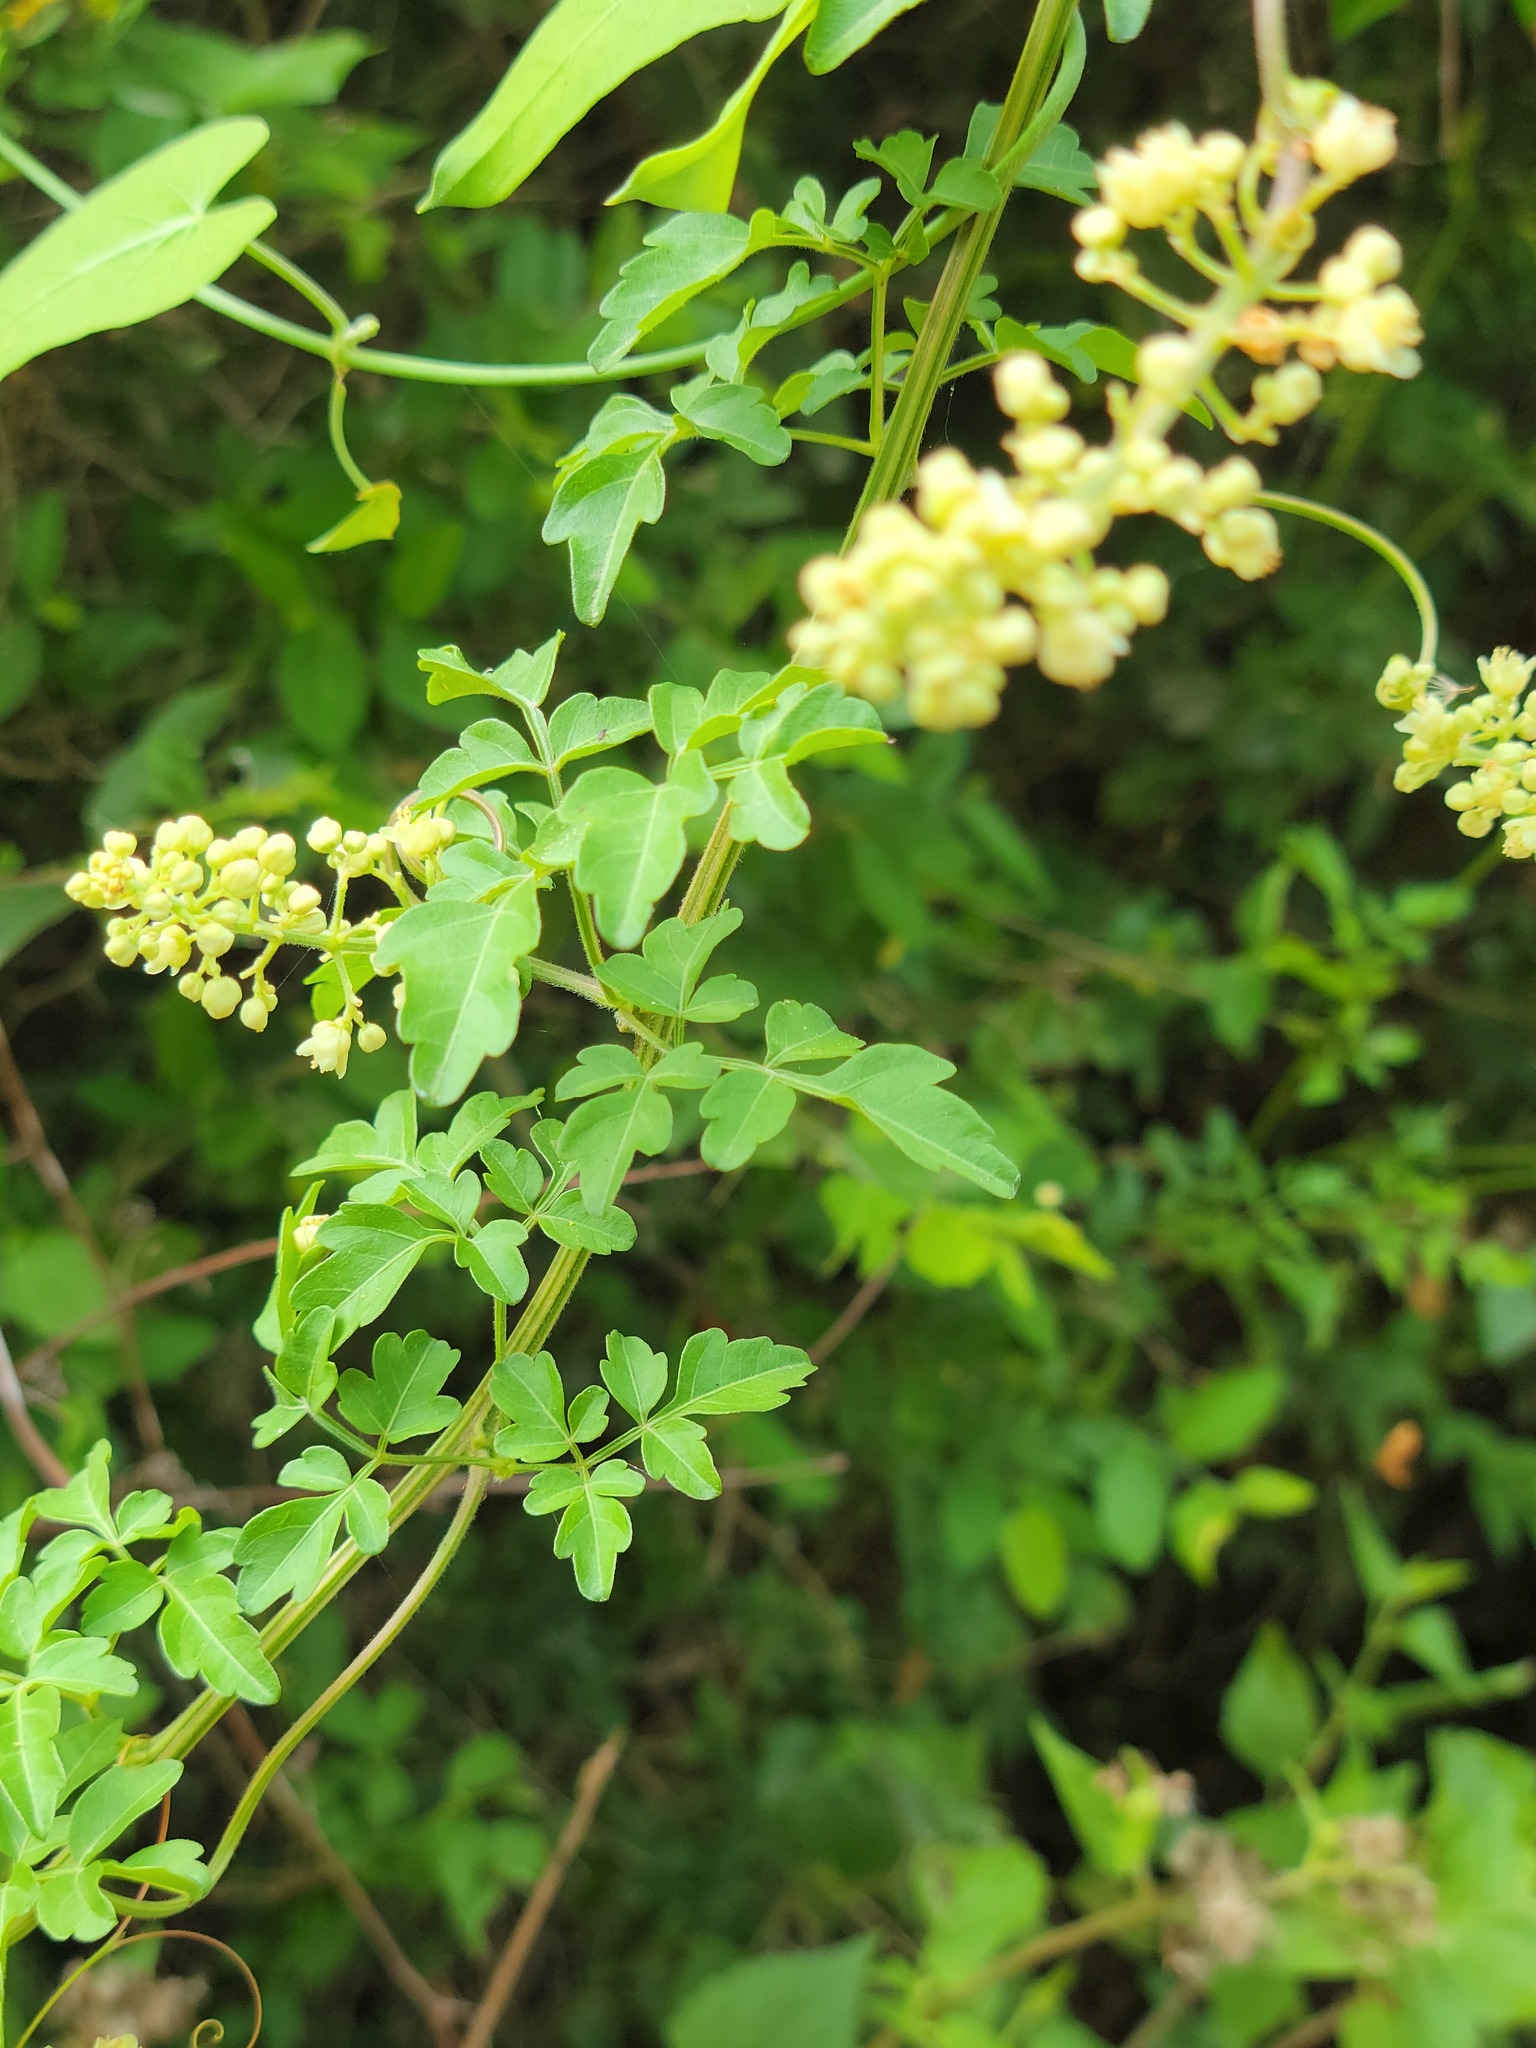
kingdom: Plantae
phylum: Tracheophyta
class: Magnoliopsida
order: Sapindales
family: Sapindaceae
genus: Serjania
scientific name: Serjania brachycarpa
